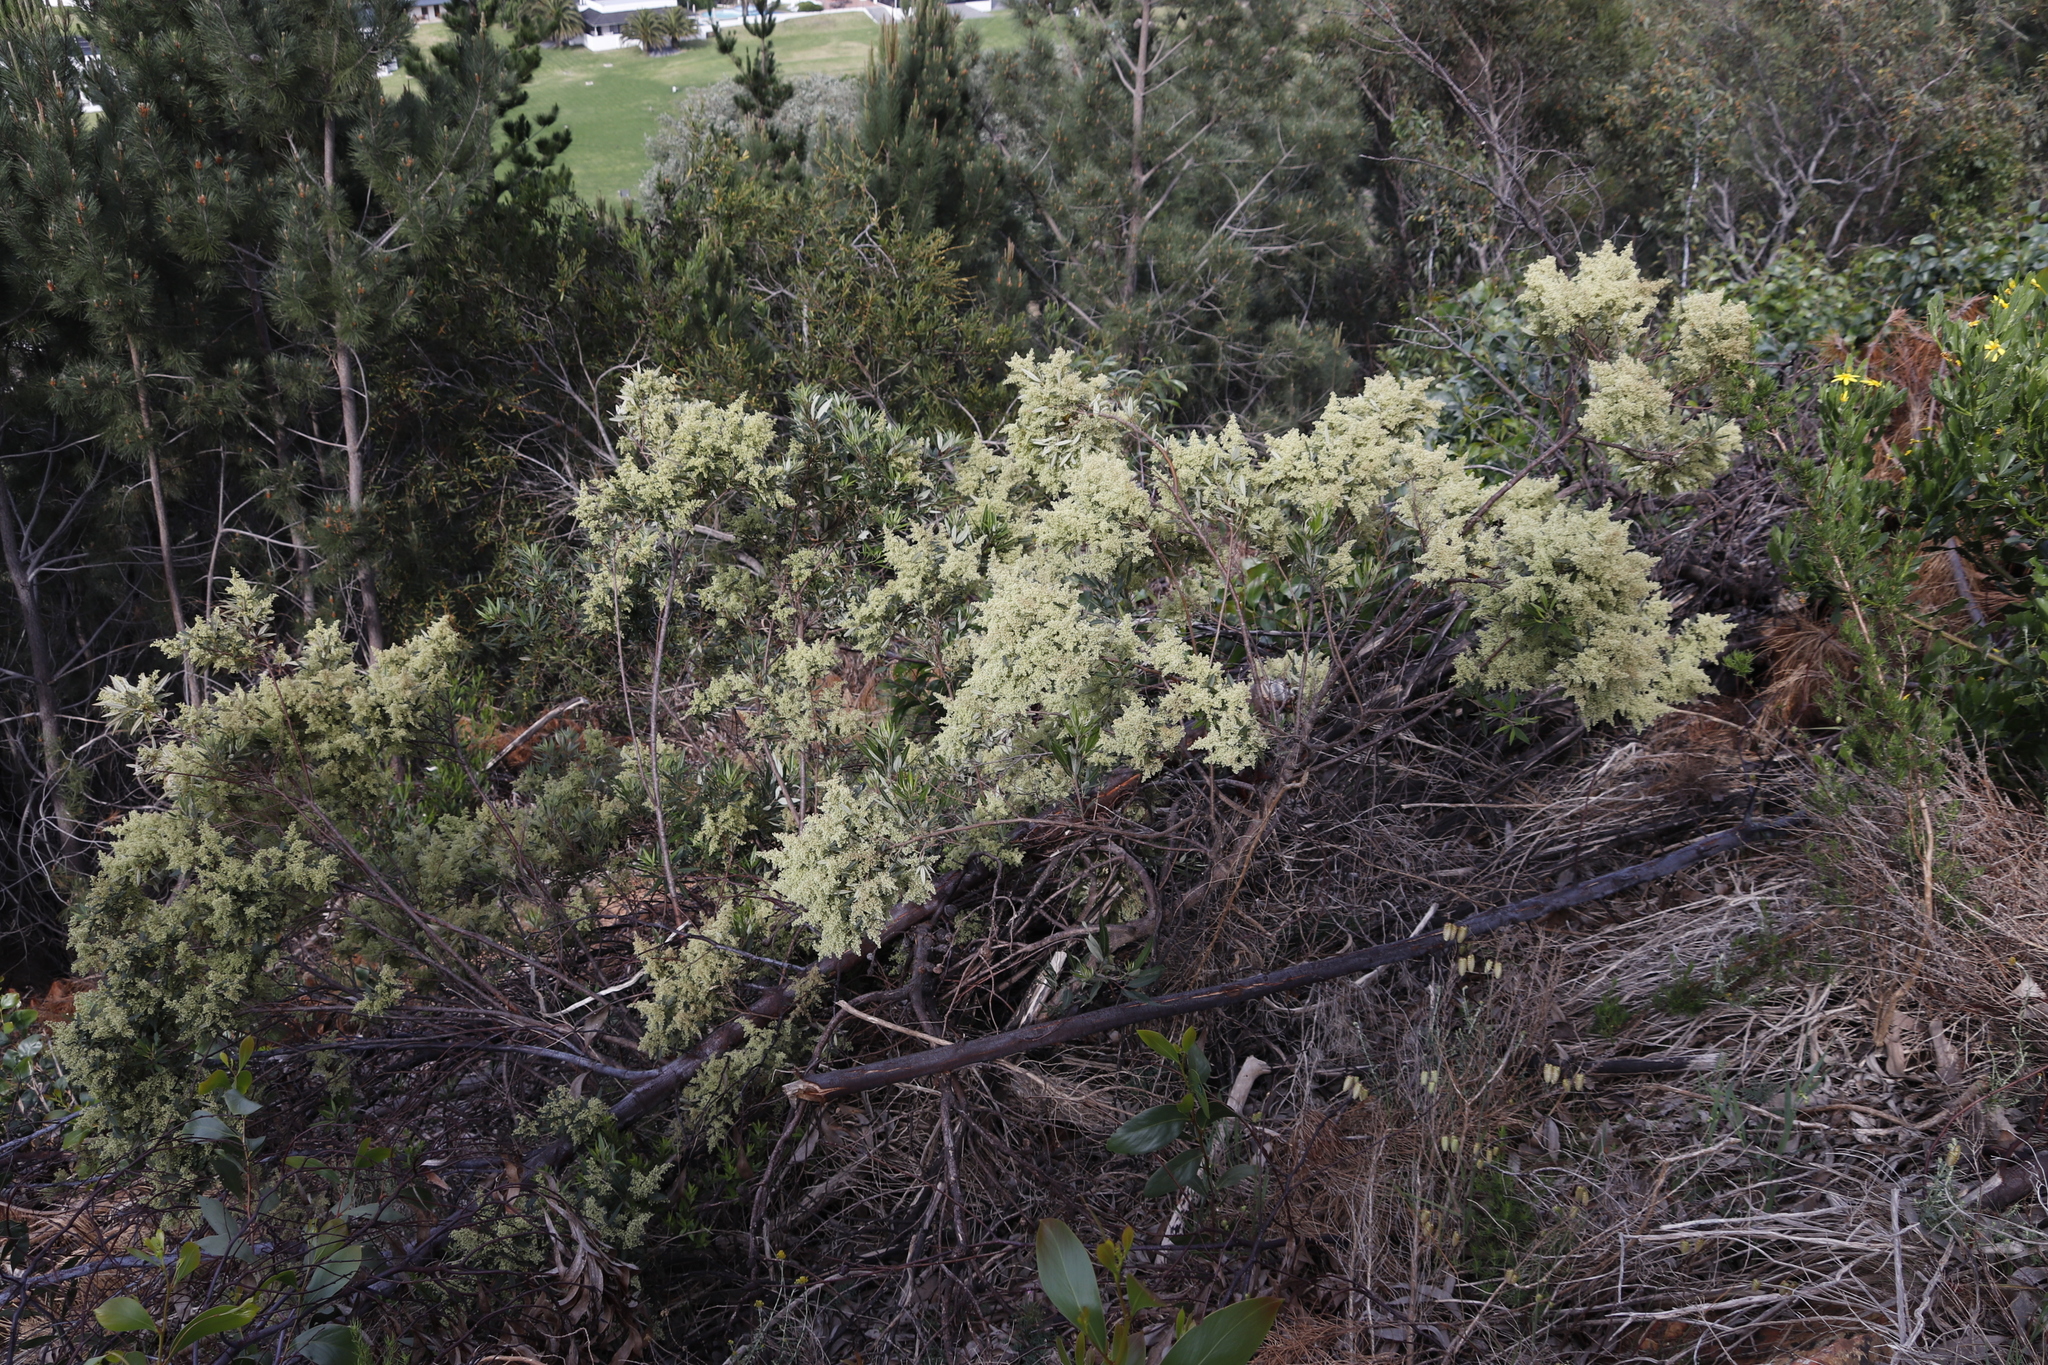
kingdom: Plantae
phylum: Tracheophyta
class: Magnoliopsida
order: Sapindales
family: Anacardiaceae
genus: Searsia
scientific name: Searsia angustifolia
